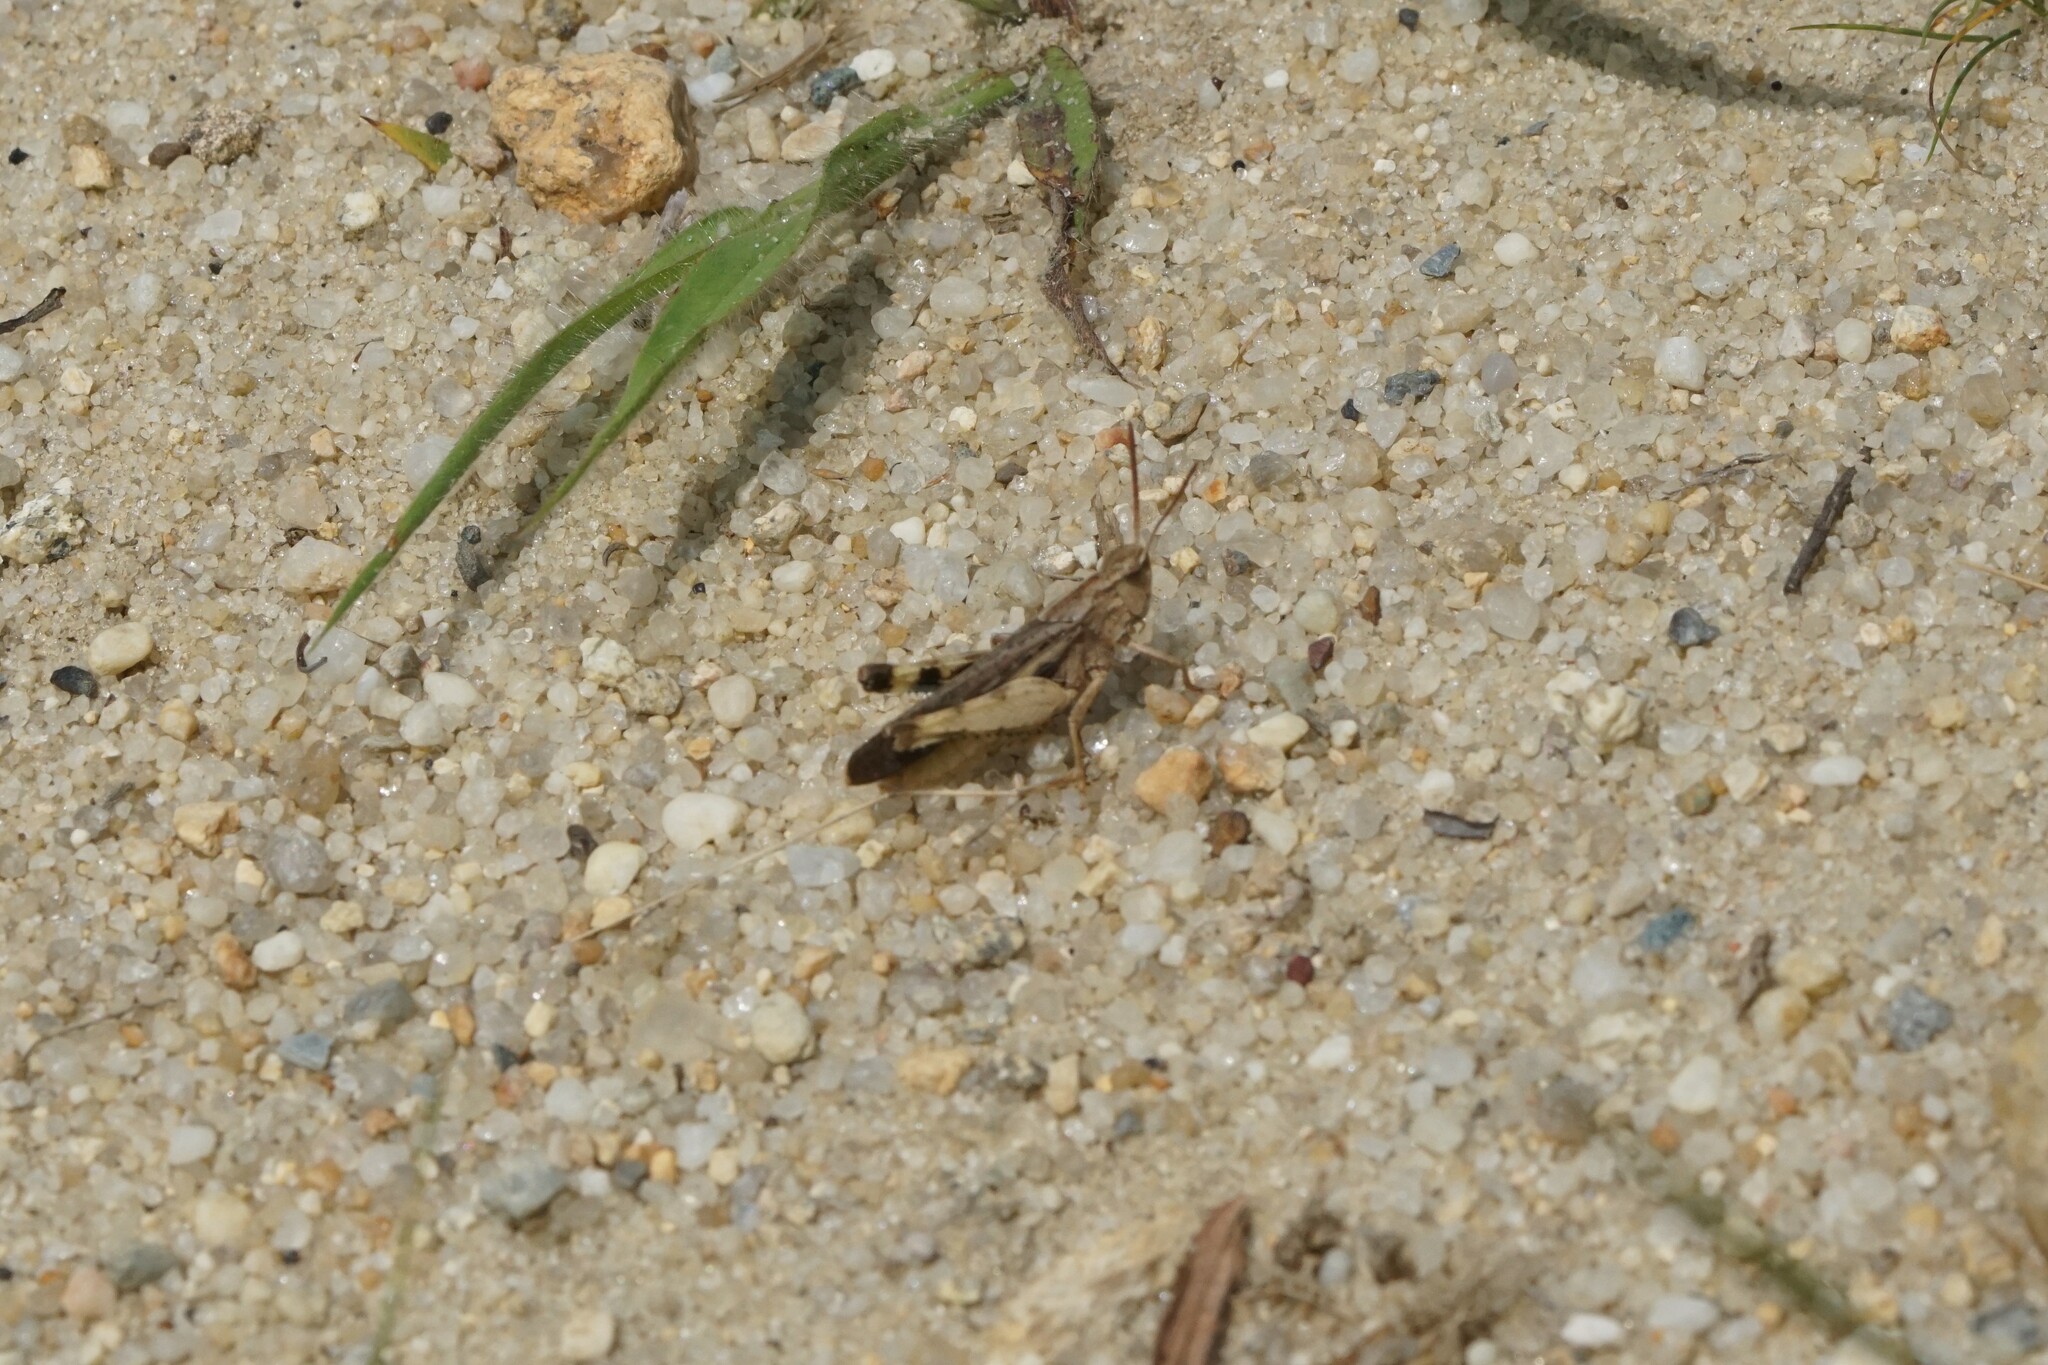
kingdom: Animalia
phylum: Arthropoda
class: Insecta
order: Orthoptera
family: Acrididae
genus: Chortophaga
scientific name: Chortophaga viridifasciata
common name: Green-striped grasshopper
